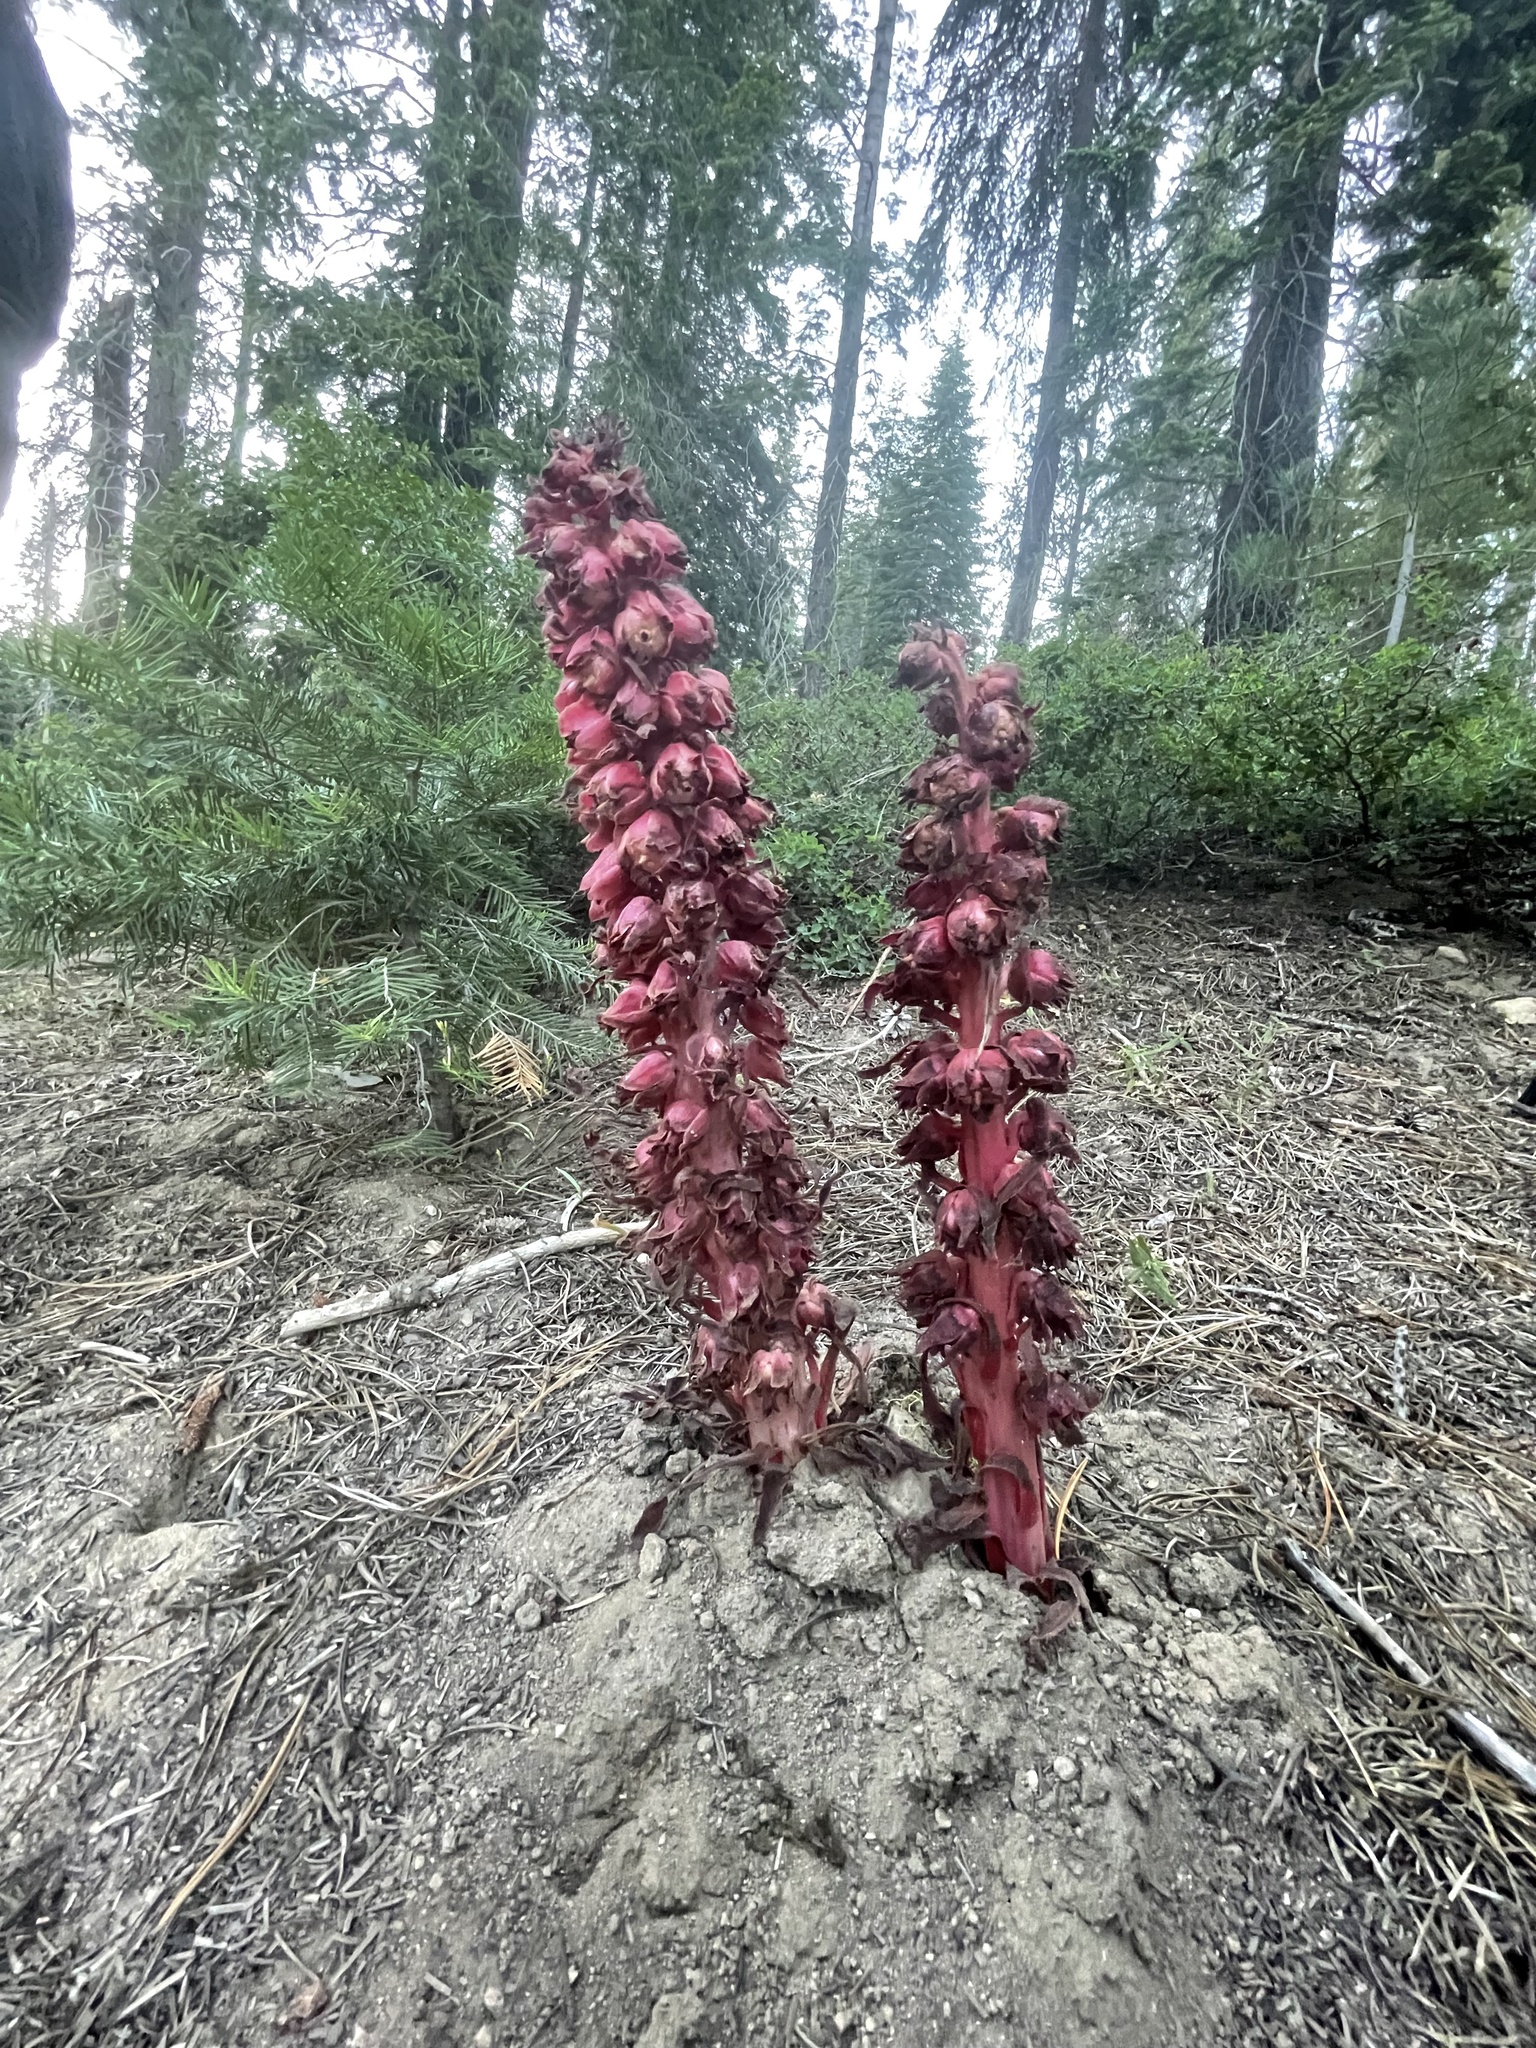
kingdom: Plantae
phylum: Tracheophyta
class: Magnoliopsida
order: Ericales
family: Ericaceae
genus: Sarcodes
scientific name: Sarcodes sanguinea
